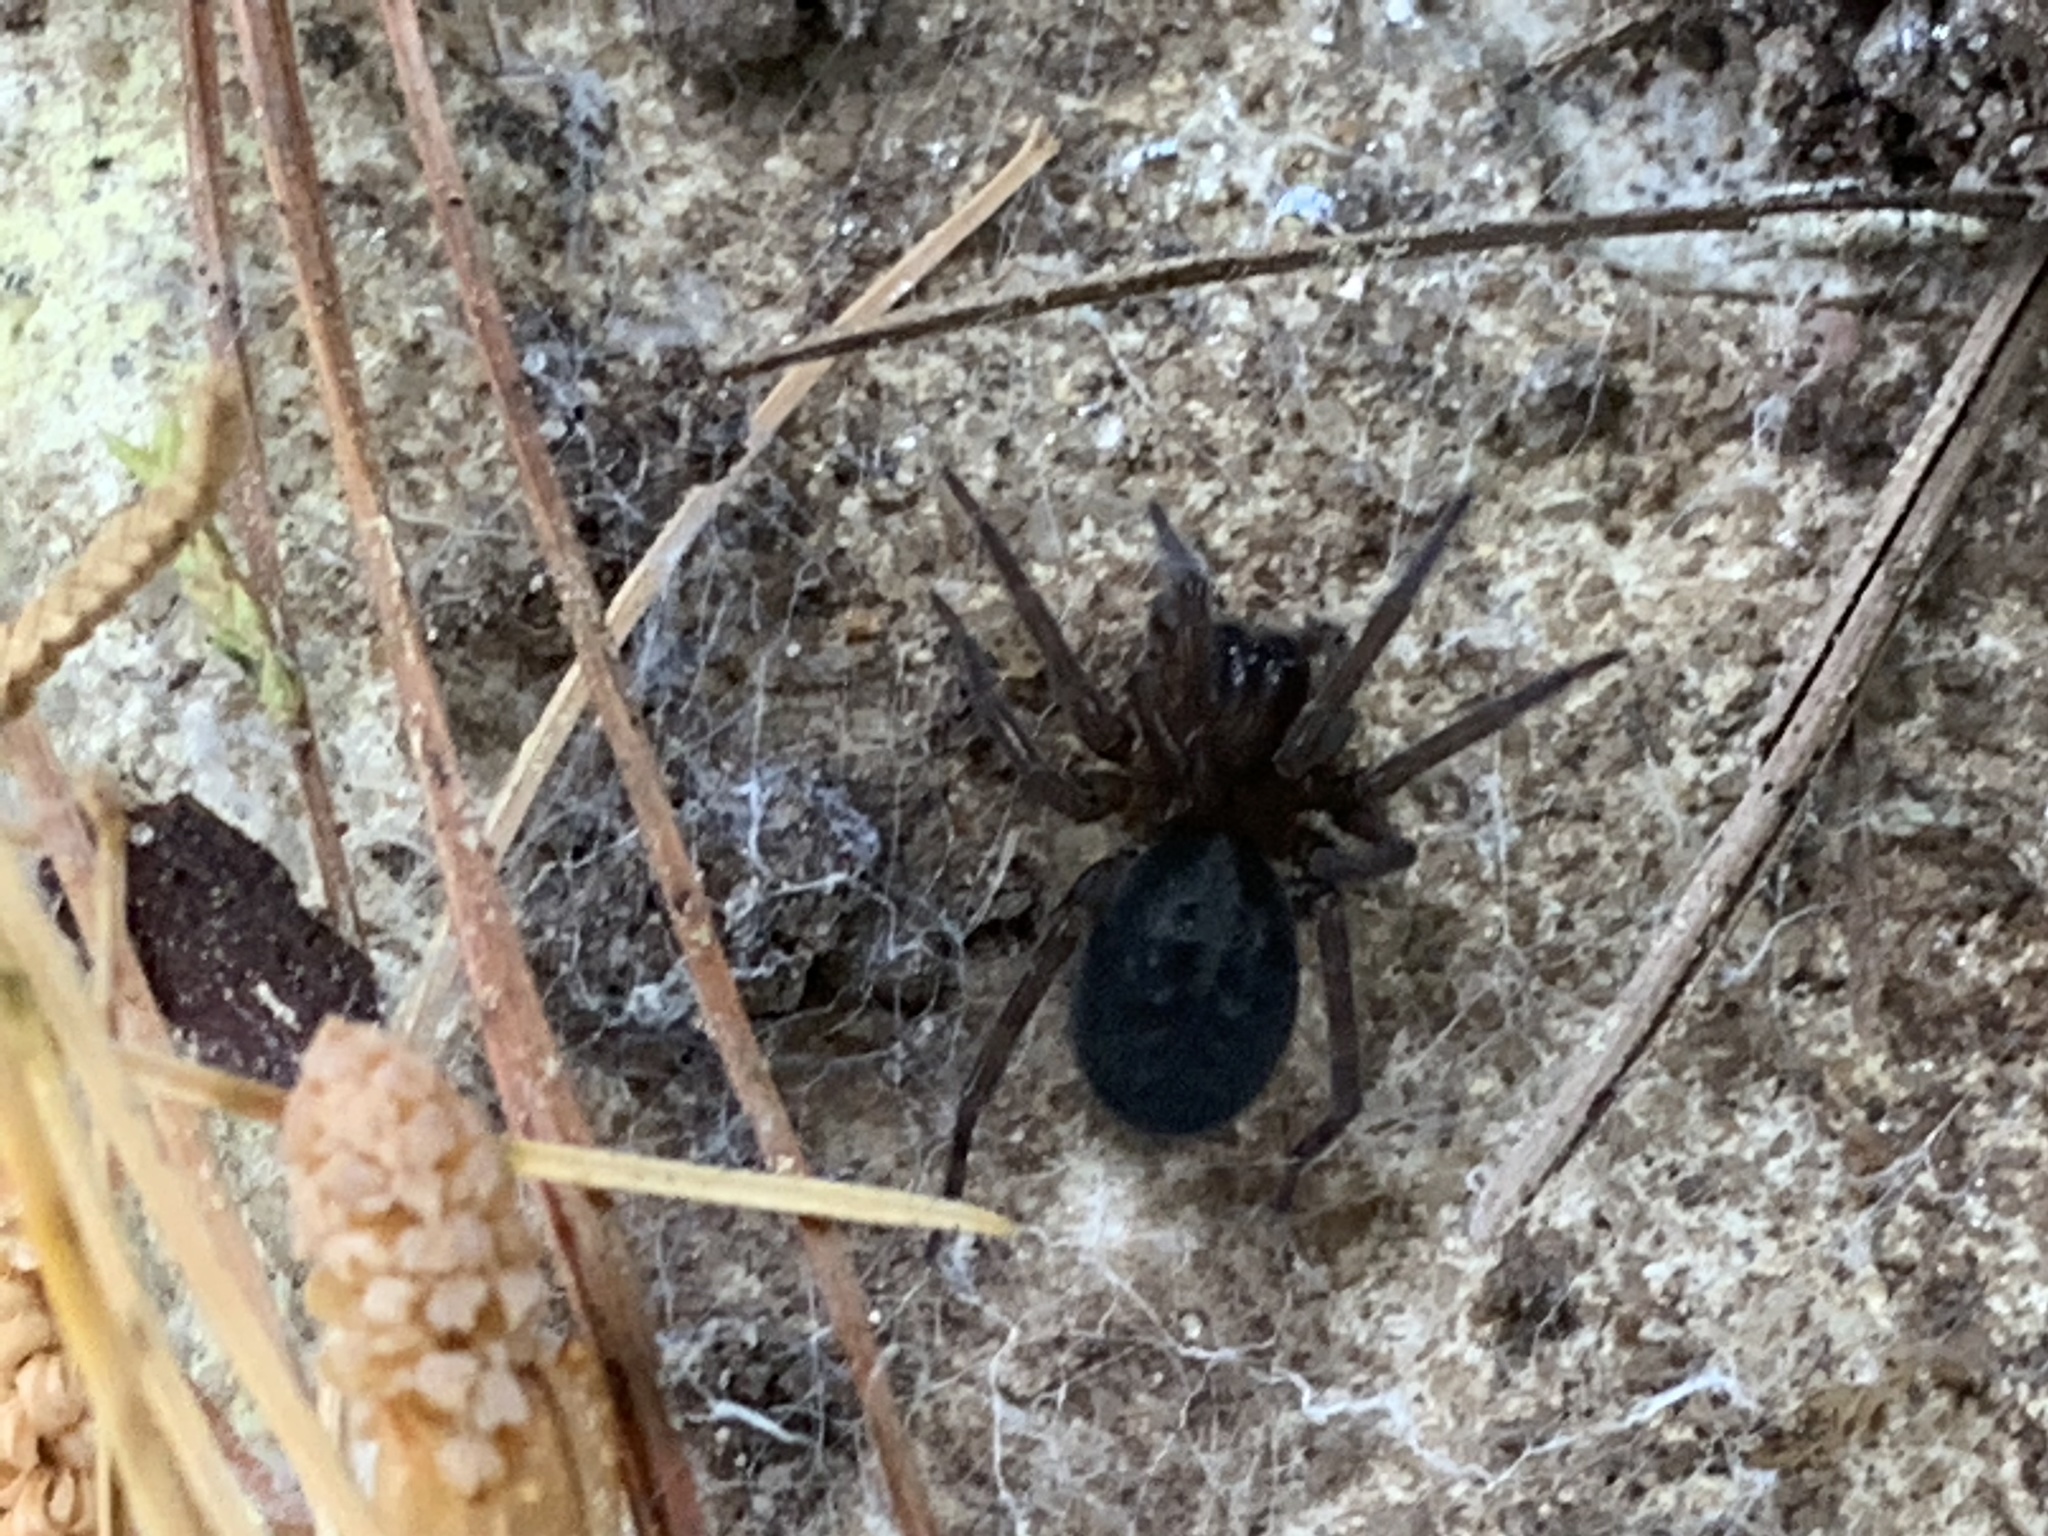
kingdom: Animalia
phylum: Arthropoda
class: Arachnida
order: Araneae
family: Amaurobiidae
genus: Amaurobius
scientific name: Amaurobius ferox
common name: Black laceweaver
